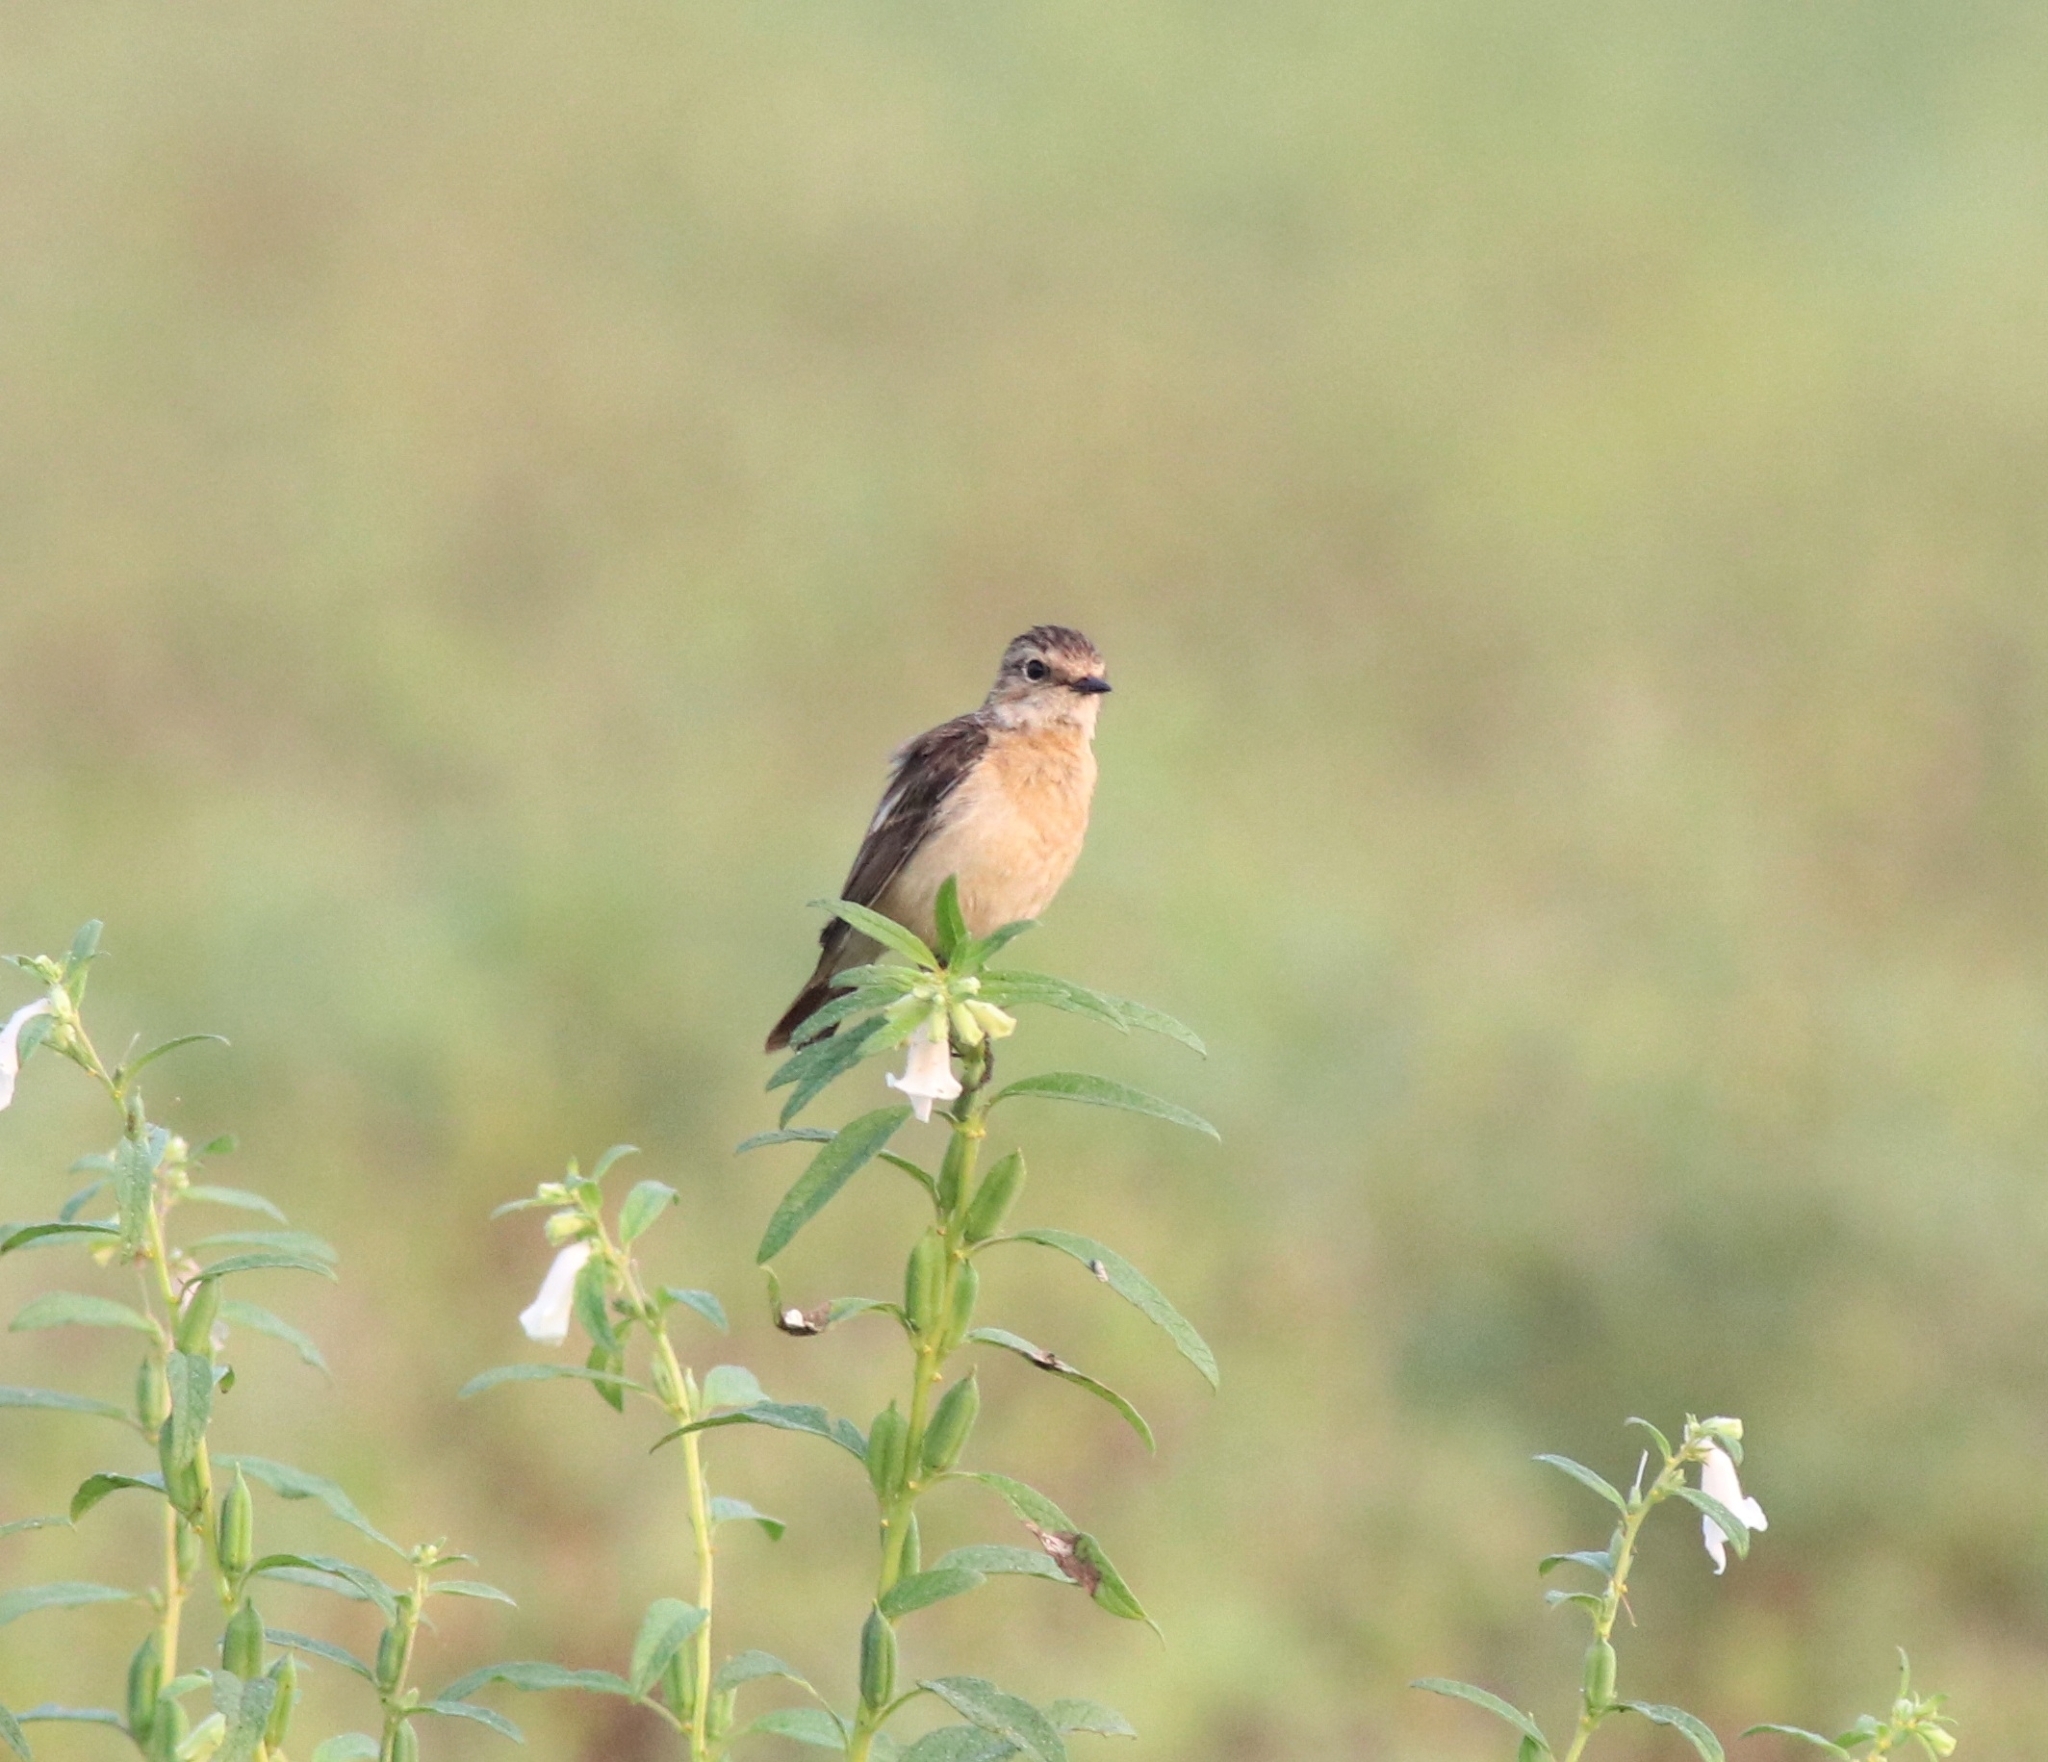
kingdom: Animalia
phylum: Chordata
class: Aves
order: Passeriformes
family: Muscicapidae
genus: Saxicola
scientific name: Saxicola maurus
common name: Siberian stonechat
